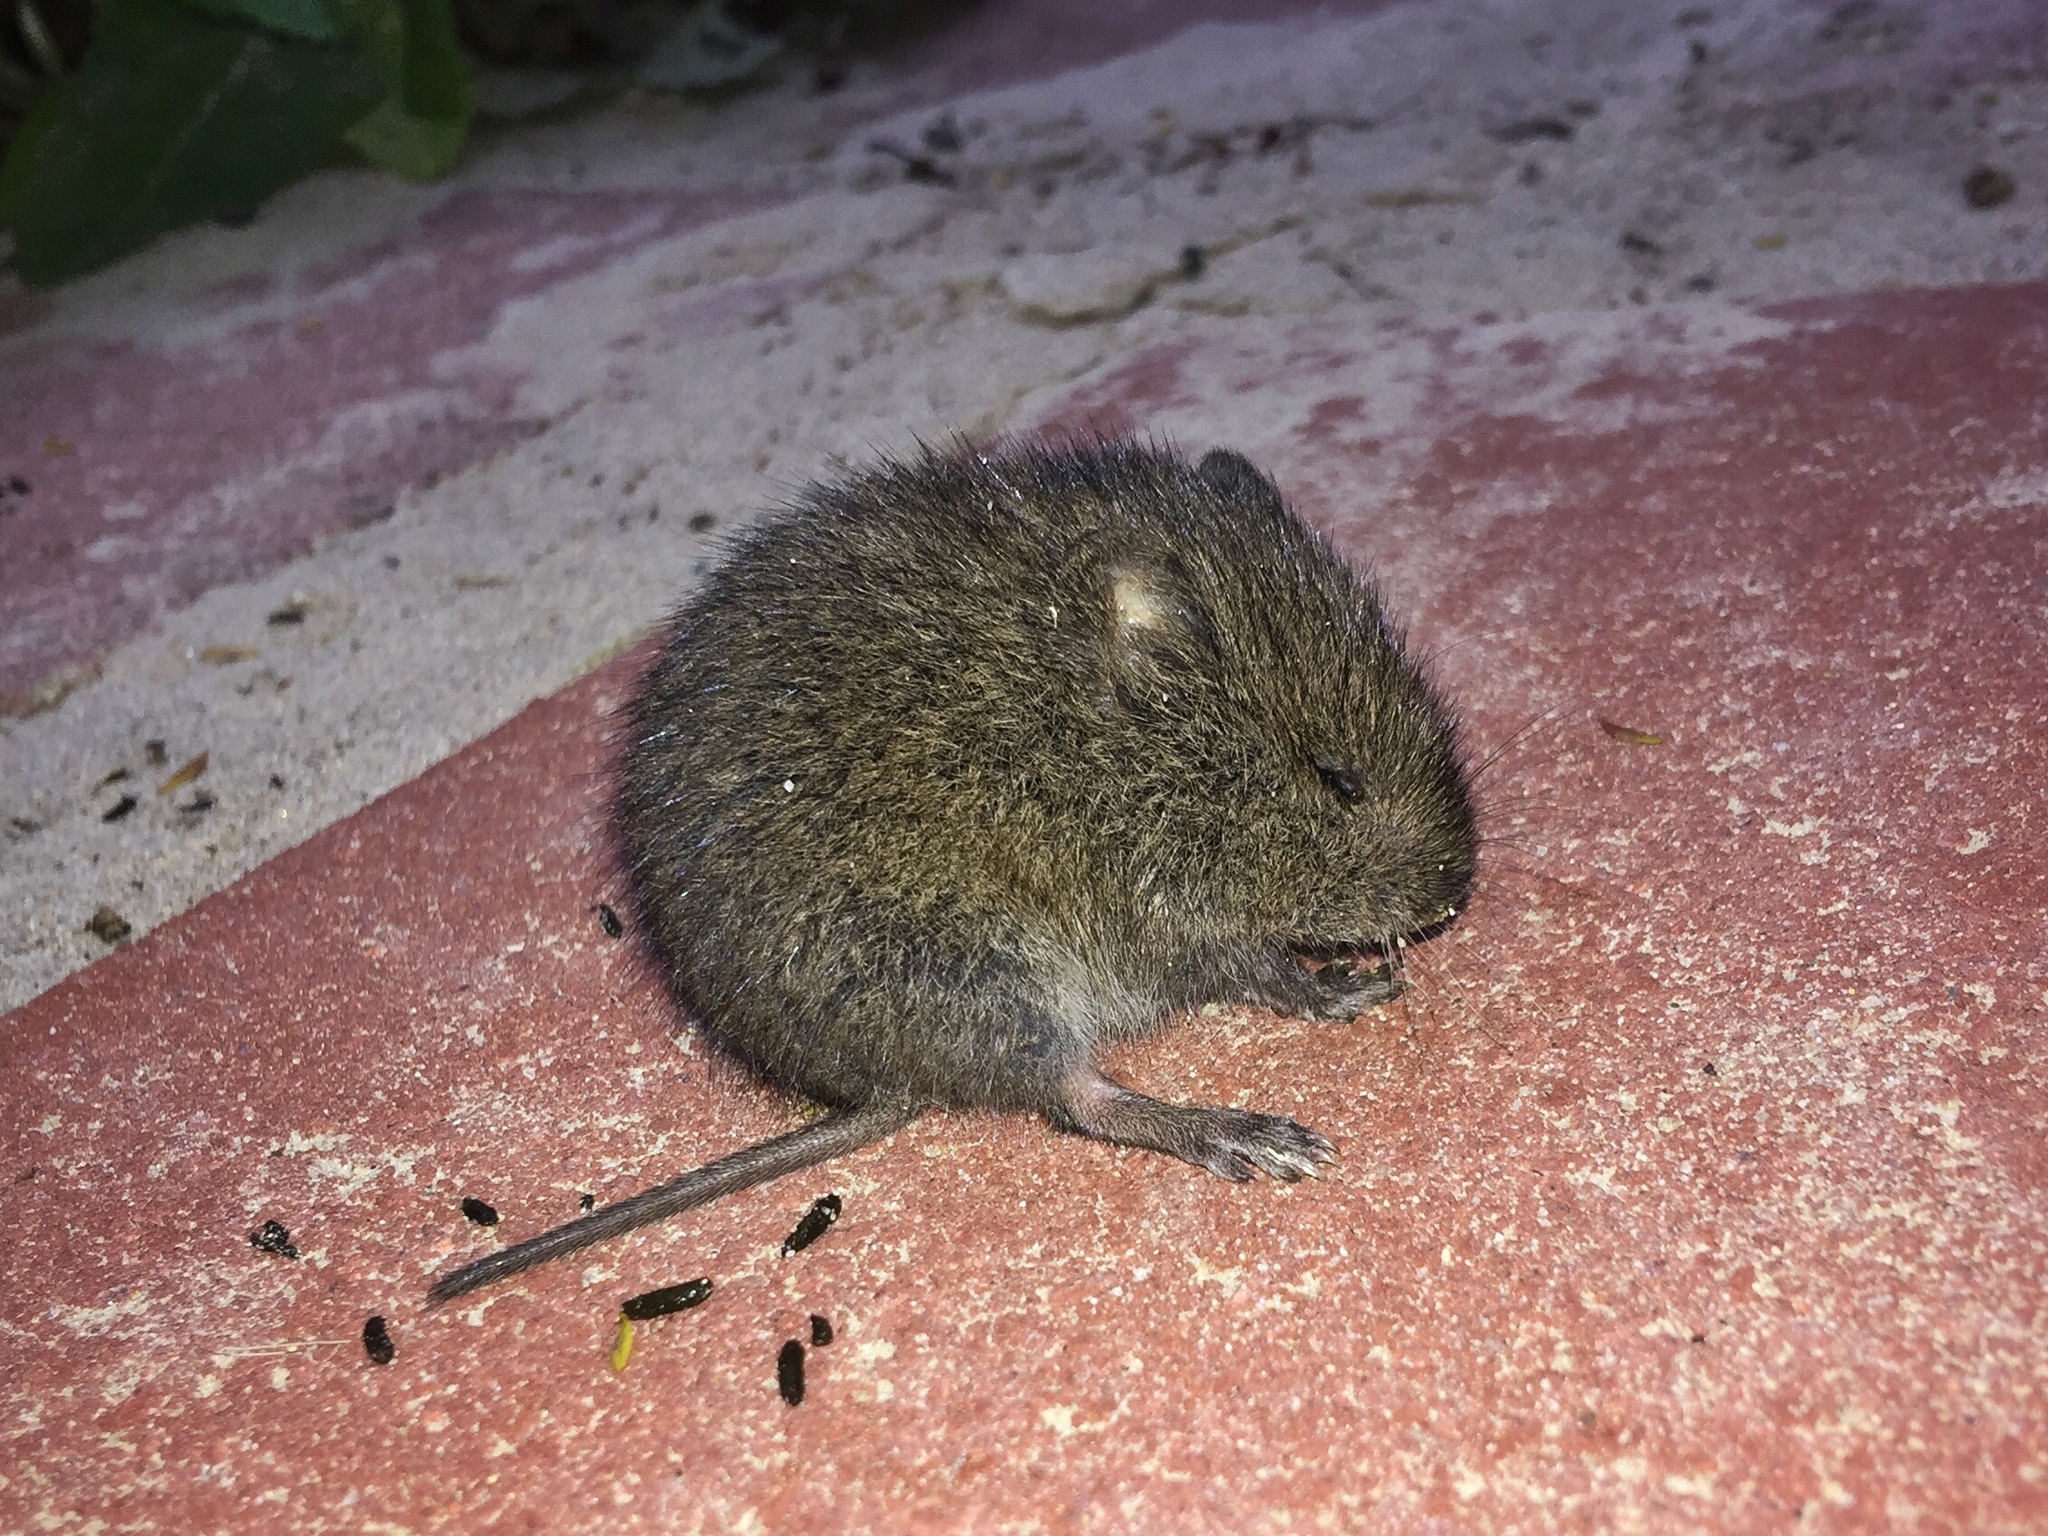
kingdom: Animalia
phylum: Chordata
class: Mammalia
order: Rodentia
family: Cricetidae
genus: Microtus
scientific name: Microtus californicus
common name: California vole
